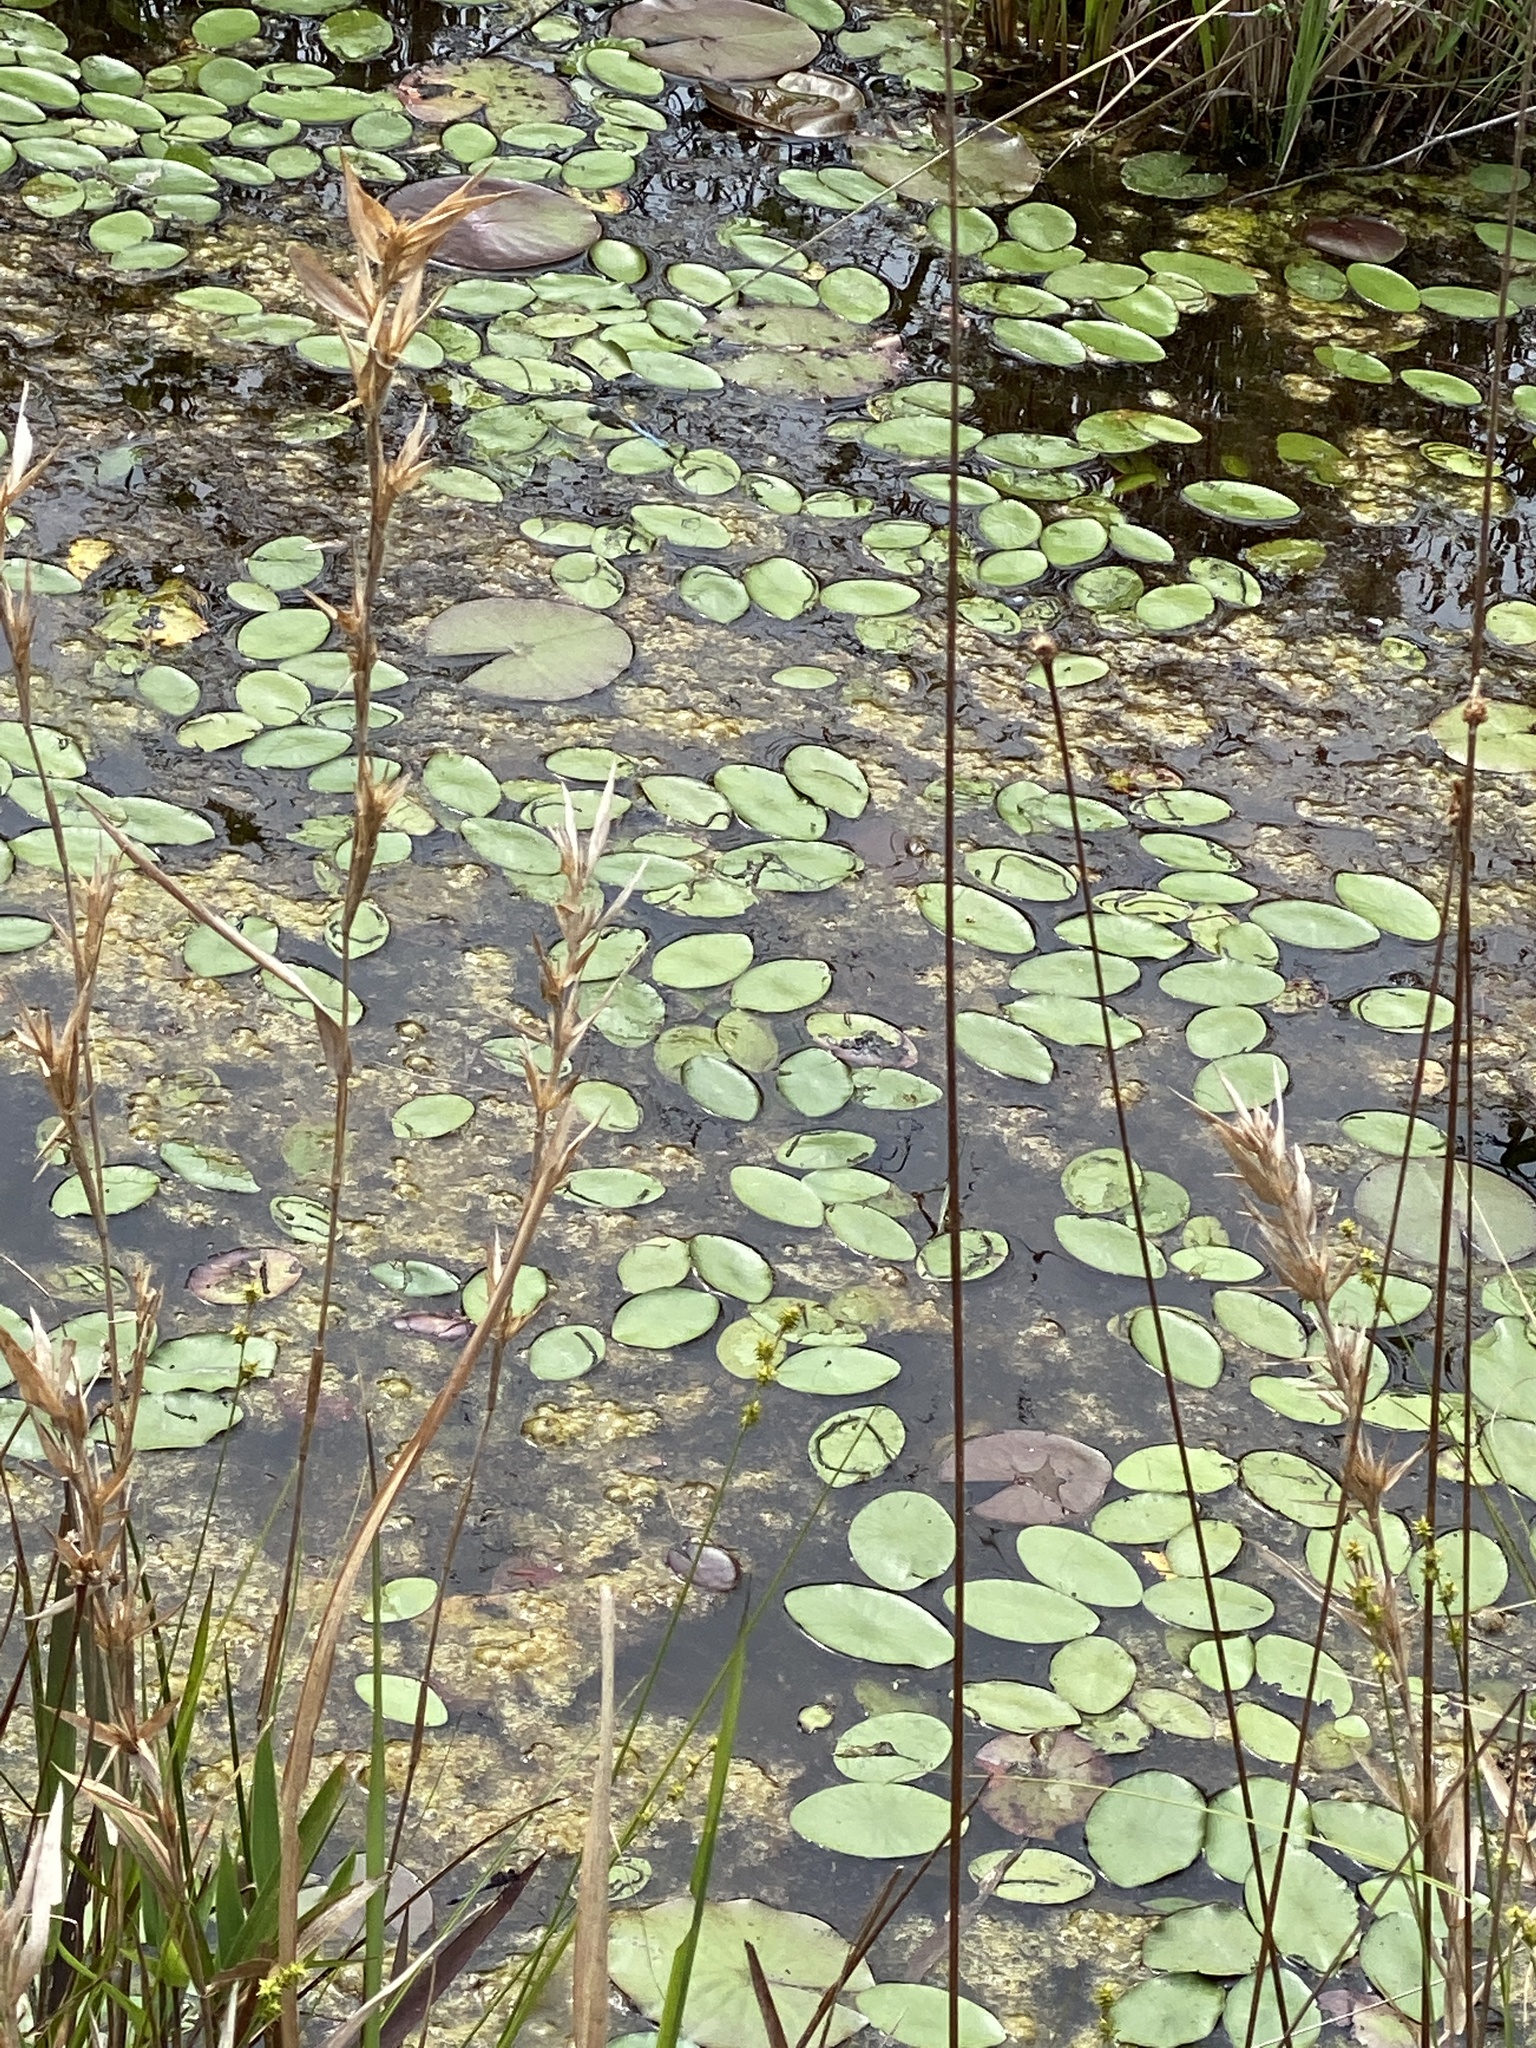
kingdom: Plantae
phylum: Tracheophyta
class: Magnoliopsida
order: Nymphaeales
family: Cabombaceae
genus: Brasenia
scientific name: Brasenia schreberi
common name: Water-shield
